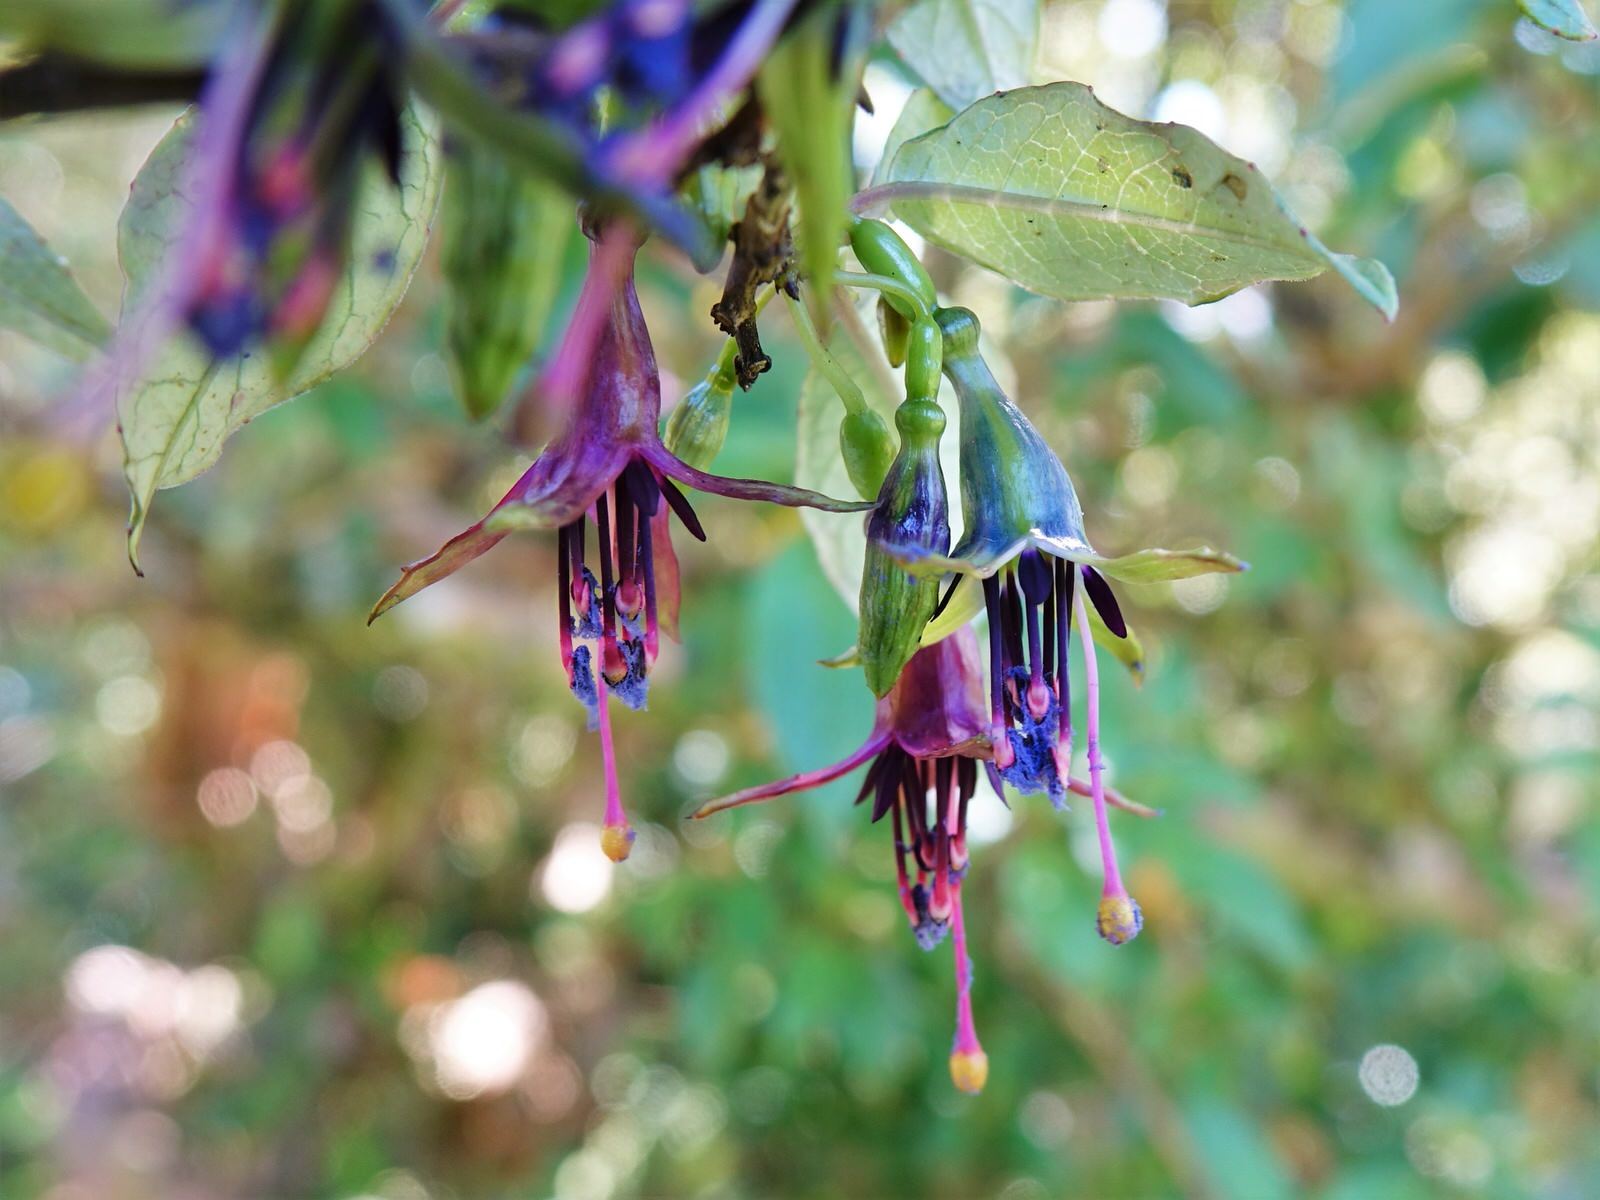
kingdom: Plantae
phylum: Tracheophyta
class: Magnoliopsida
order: Myrtales
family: Onagraceae
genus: Fuchsia
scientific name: Fuchsia excorticata
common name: Tree fuchsia
